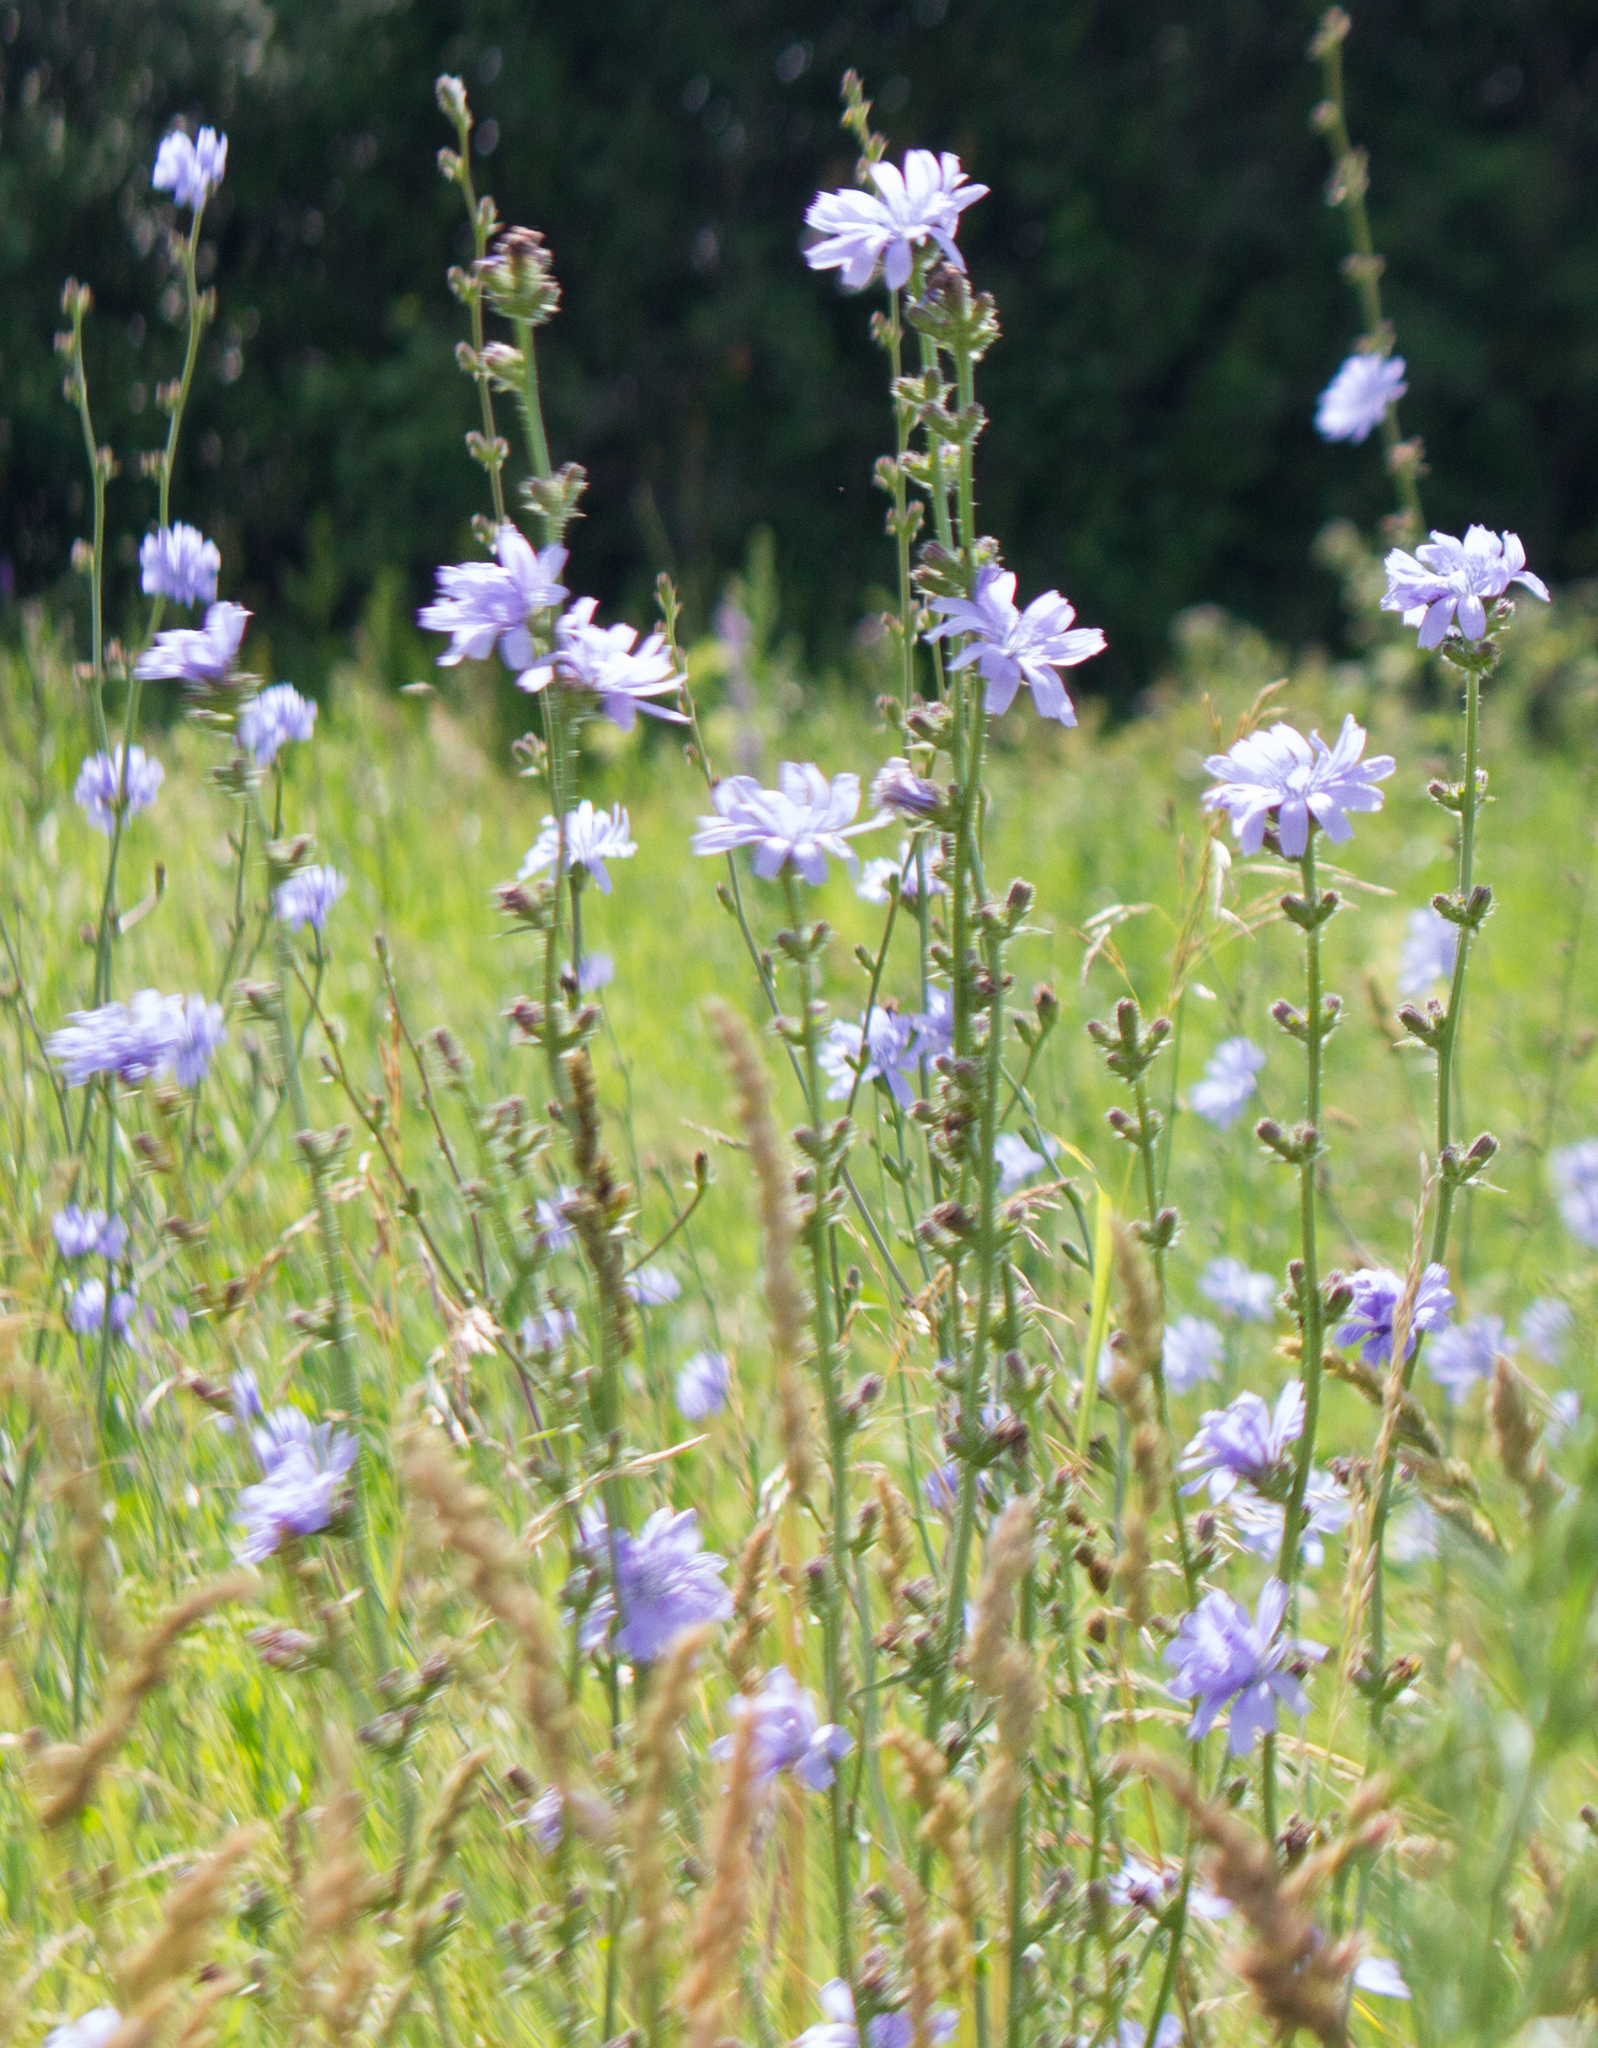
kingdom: Plantae
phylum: Tracheophyta
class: Magnoliopsida
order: Asterales
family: Asteraceae
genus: Cichorium
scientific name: Cichorium intybus
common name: Chicory
